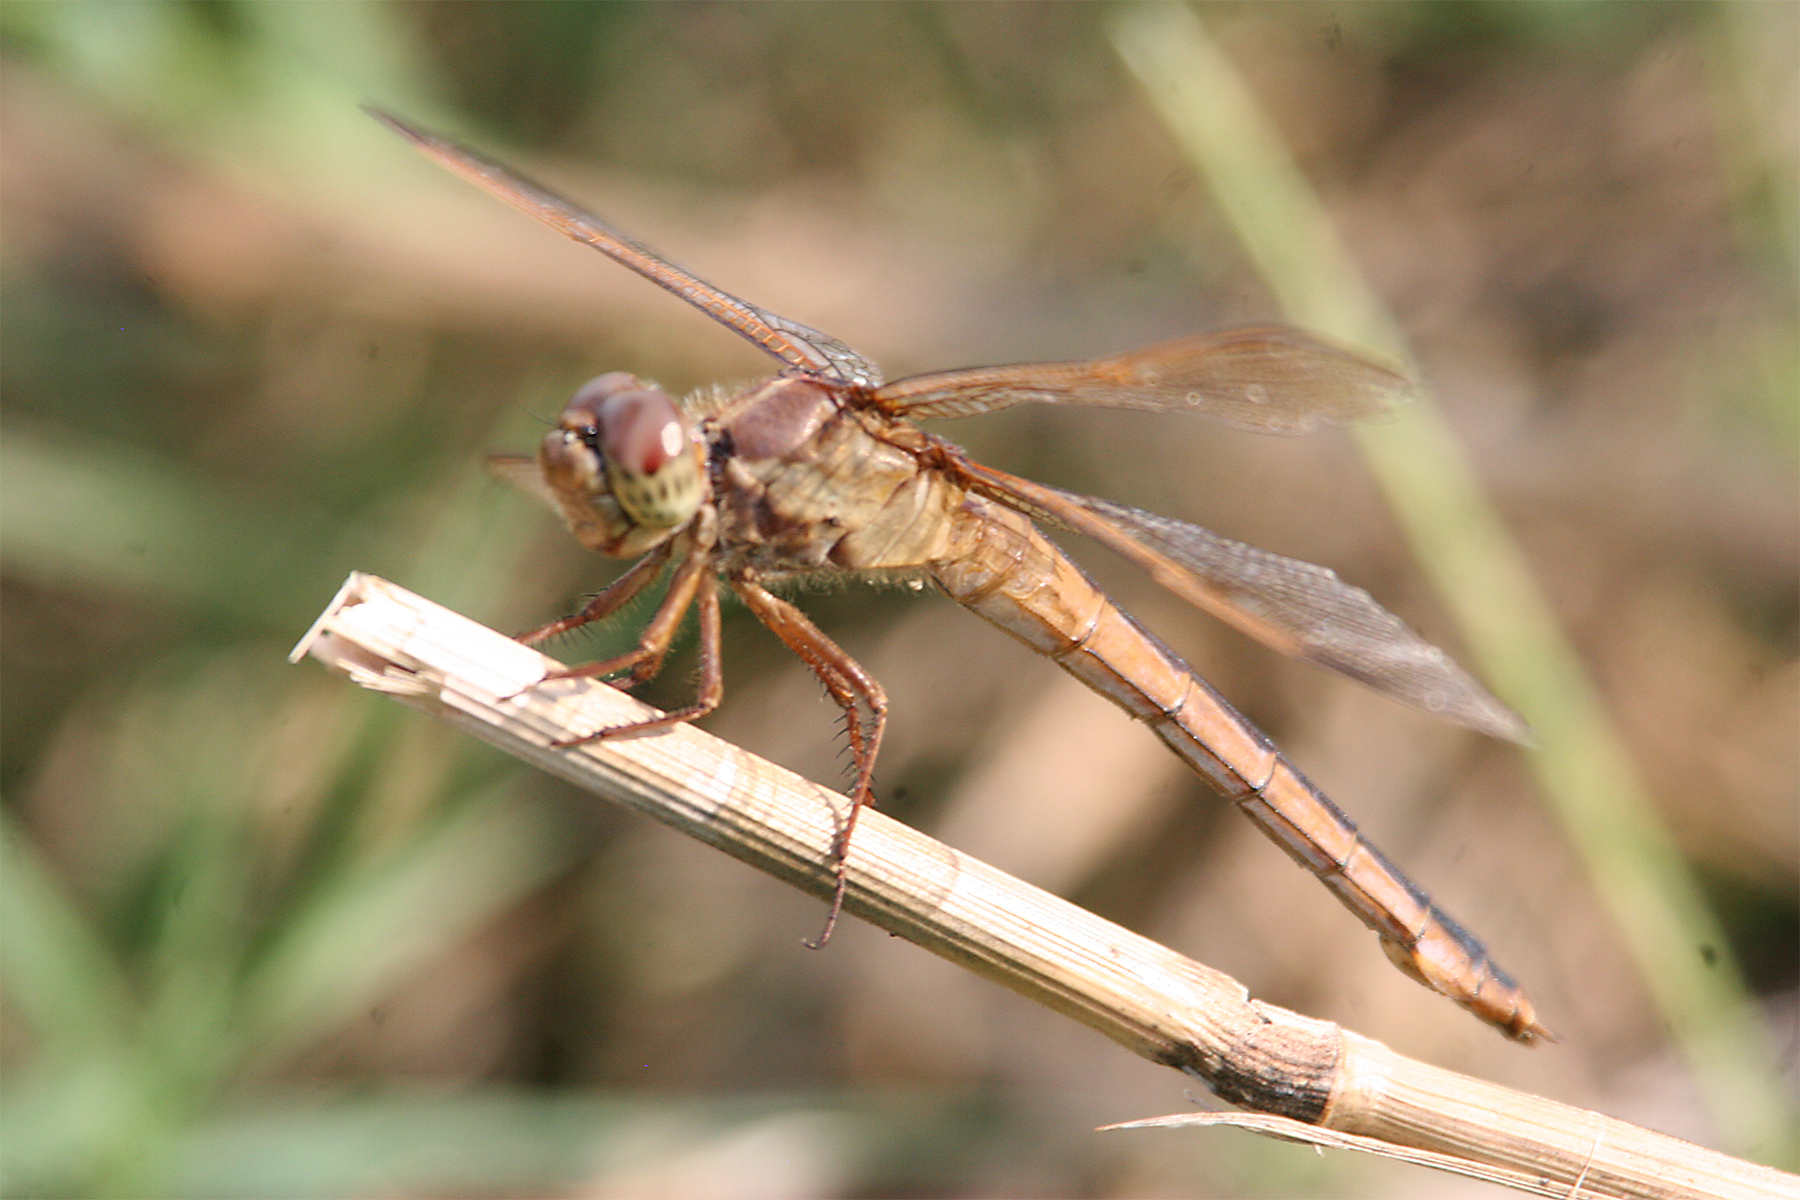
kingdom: Animalia
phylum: Arthropoda
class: Insecta
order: Odonata
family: Libellulidae
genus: Libellula
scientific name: Libellula needhami
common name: Needham's skimmer
